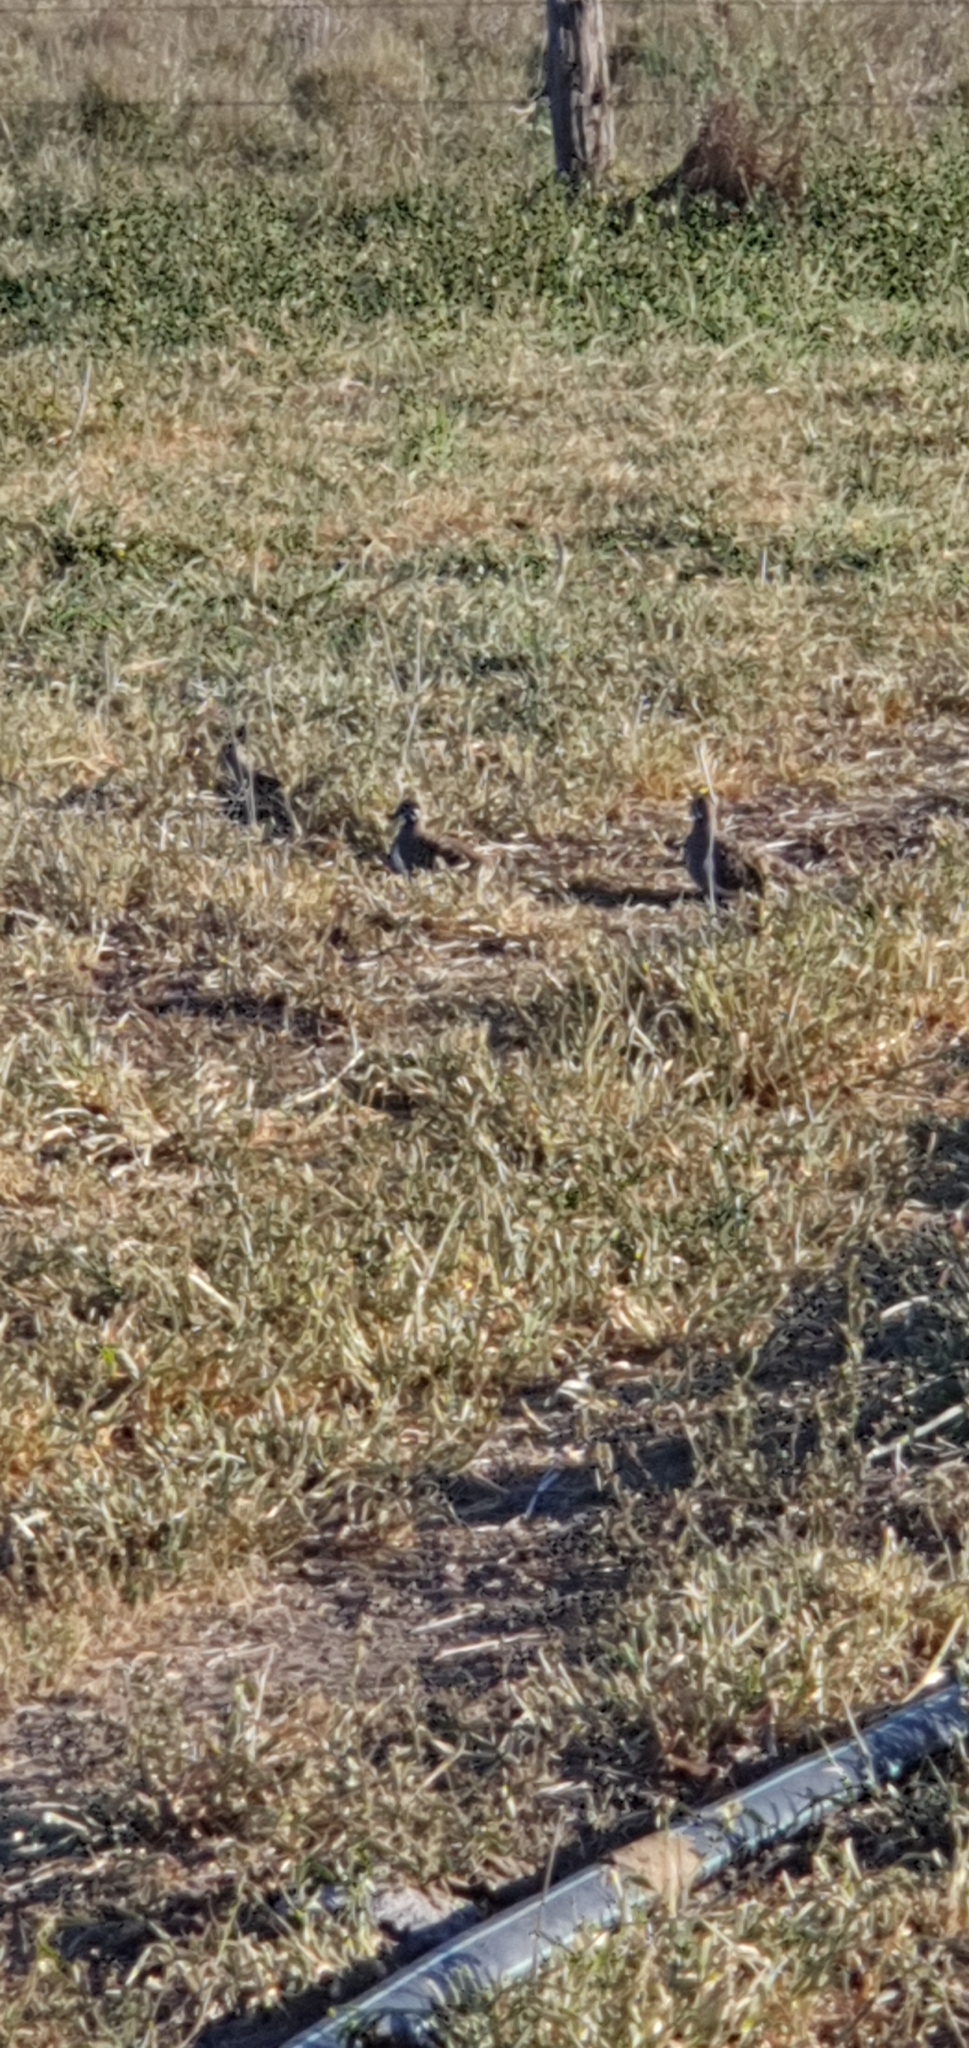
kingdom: Animalia
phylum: Chordata
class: Aves
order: Columbiformes
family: Columbidae
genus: Geophaps
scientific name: Geophaps scripta
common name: Squatter pigeon
